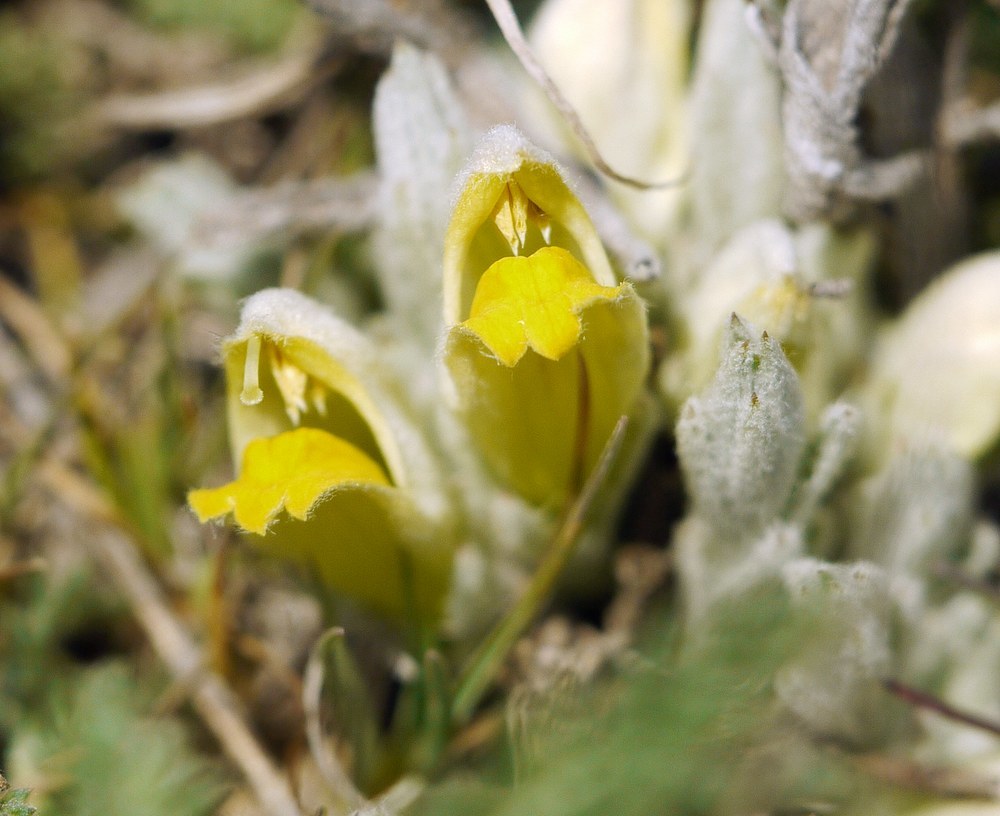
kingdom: Plantae
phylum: Tracheophyta
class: Magnoliopsida
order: Lamiales
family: Orobanchaceae
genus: Cymbaria
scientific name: Cymbaria borysthenica
